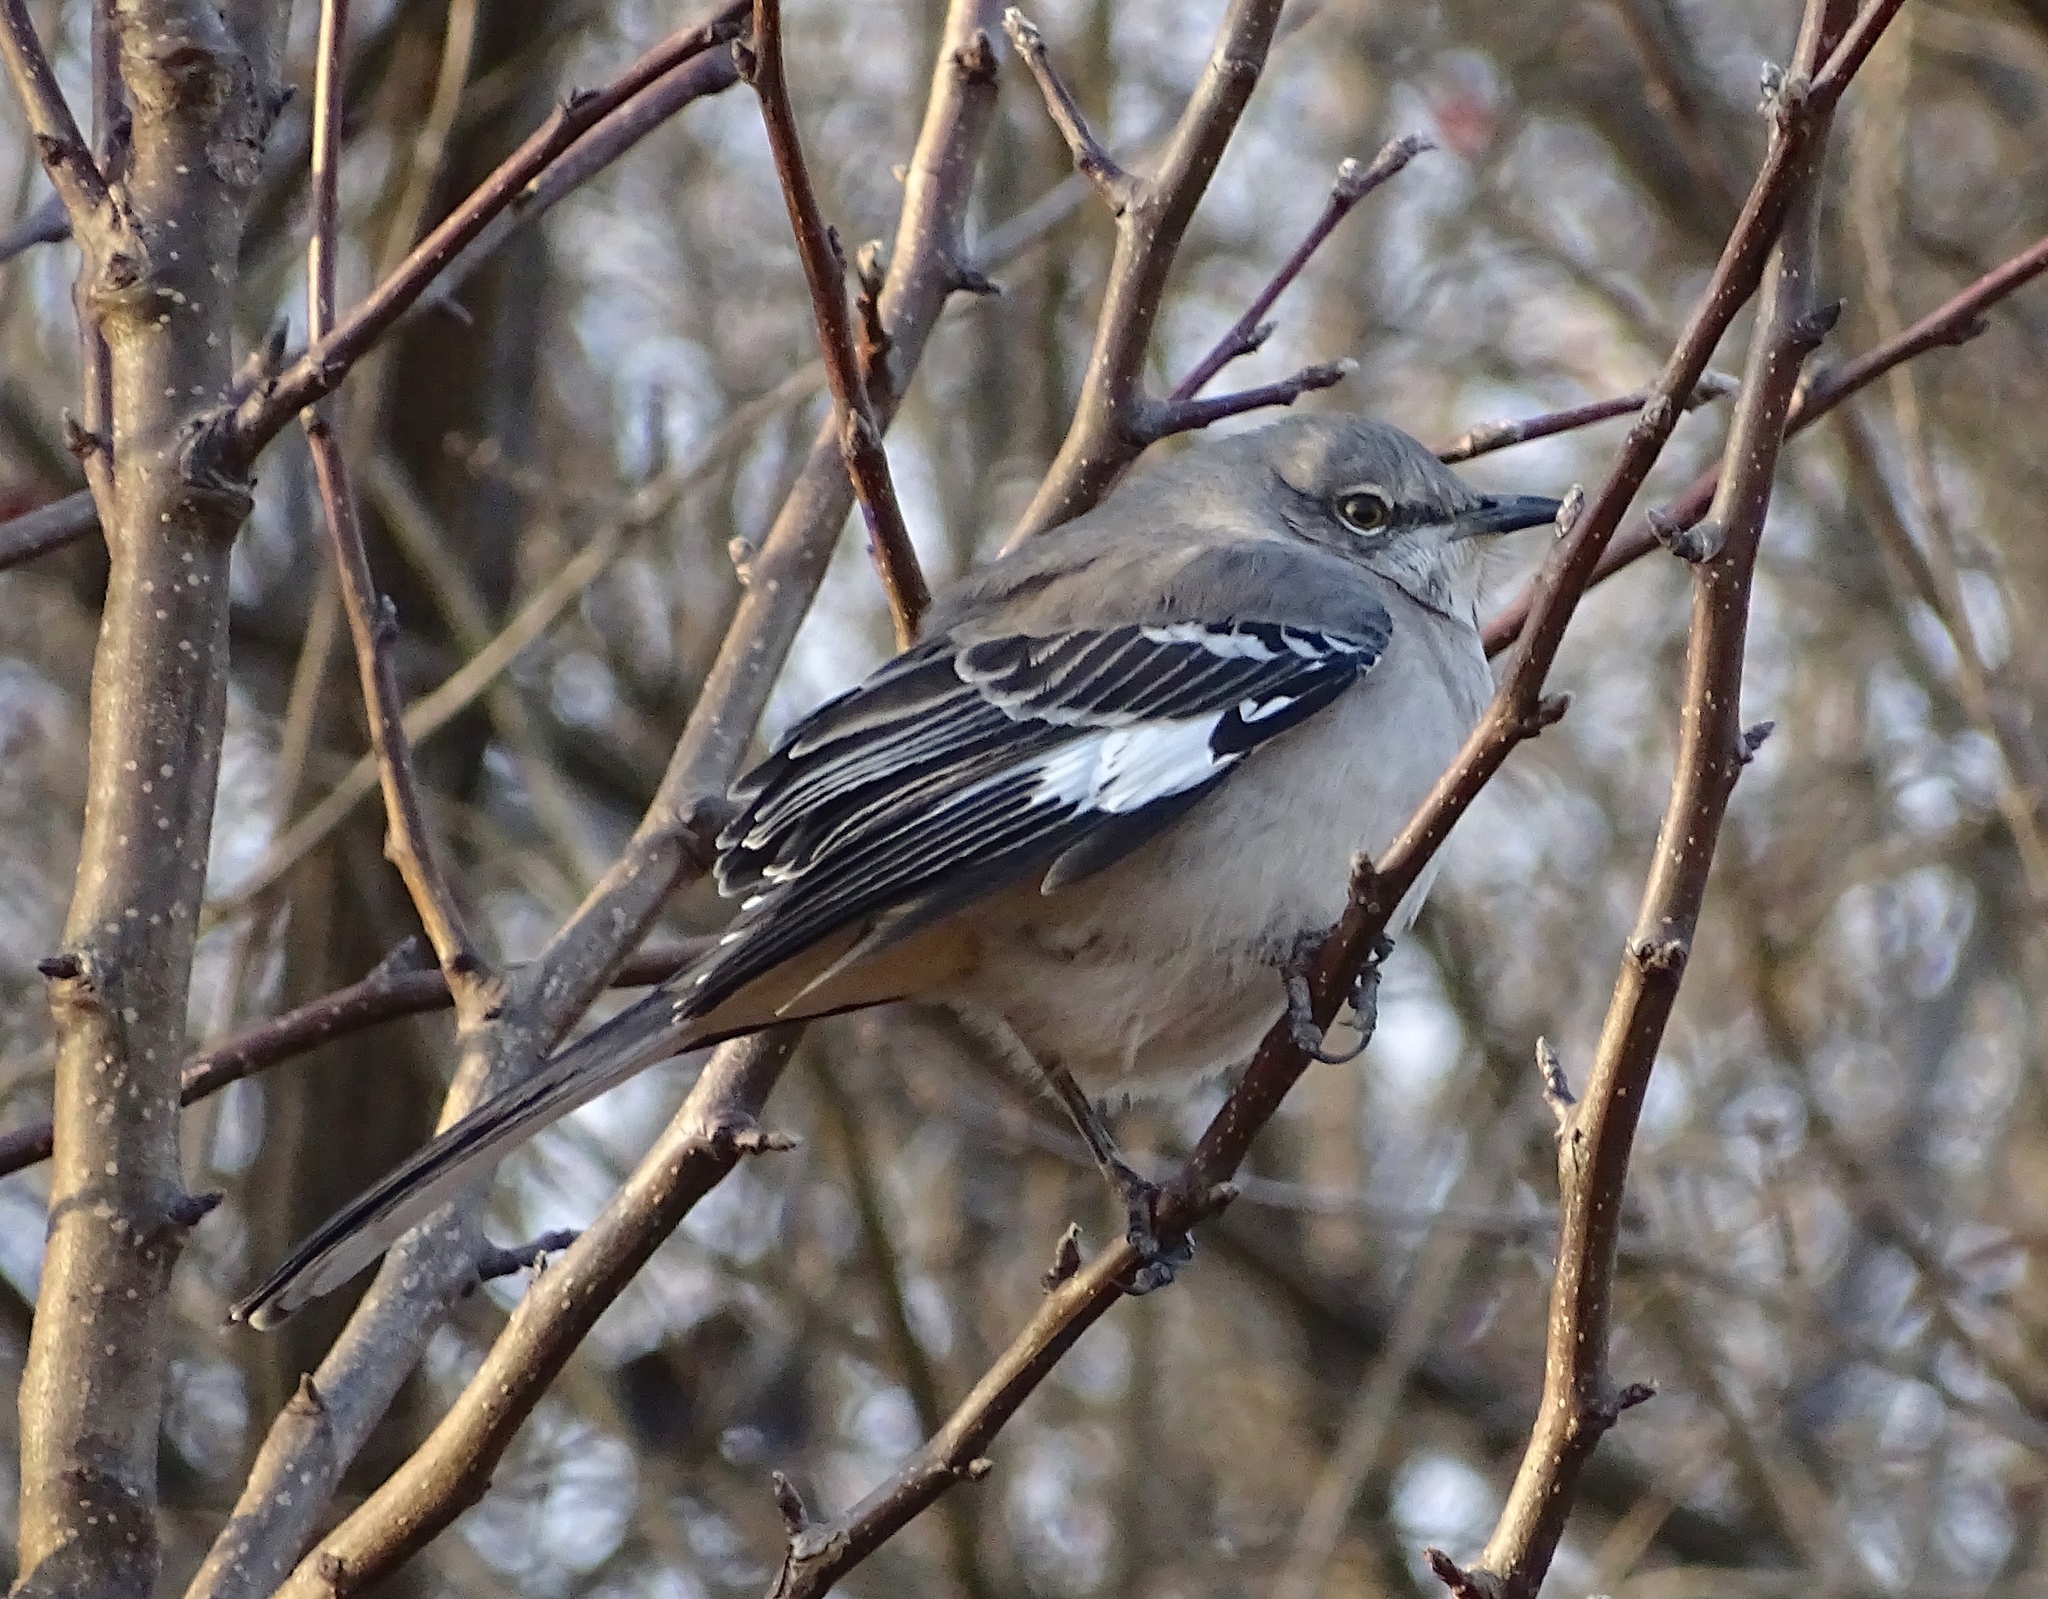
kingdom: Animalia
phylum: Chordata
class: Aves
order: Passeriformes
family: Mimidae
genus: Mimus
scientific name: Mimus polyglottos
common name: Northern mockingbird
